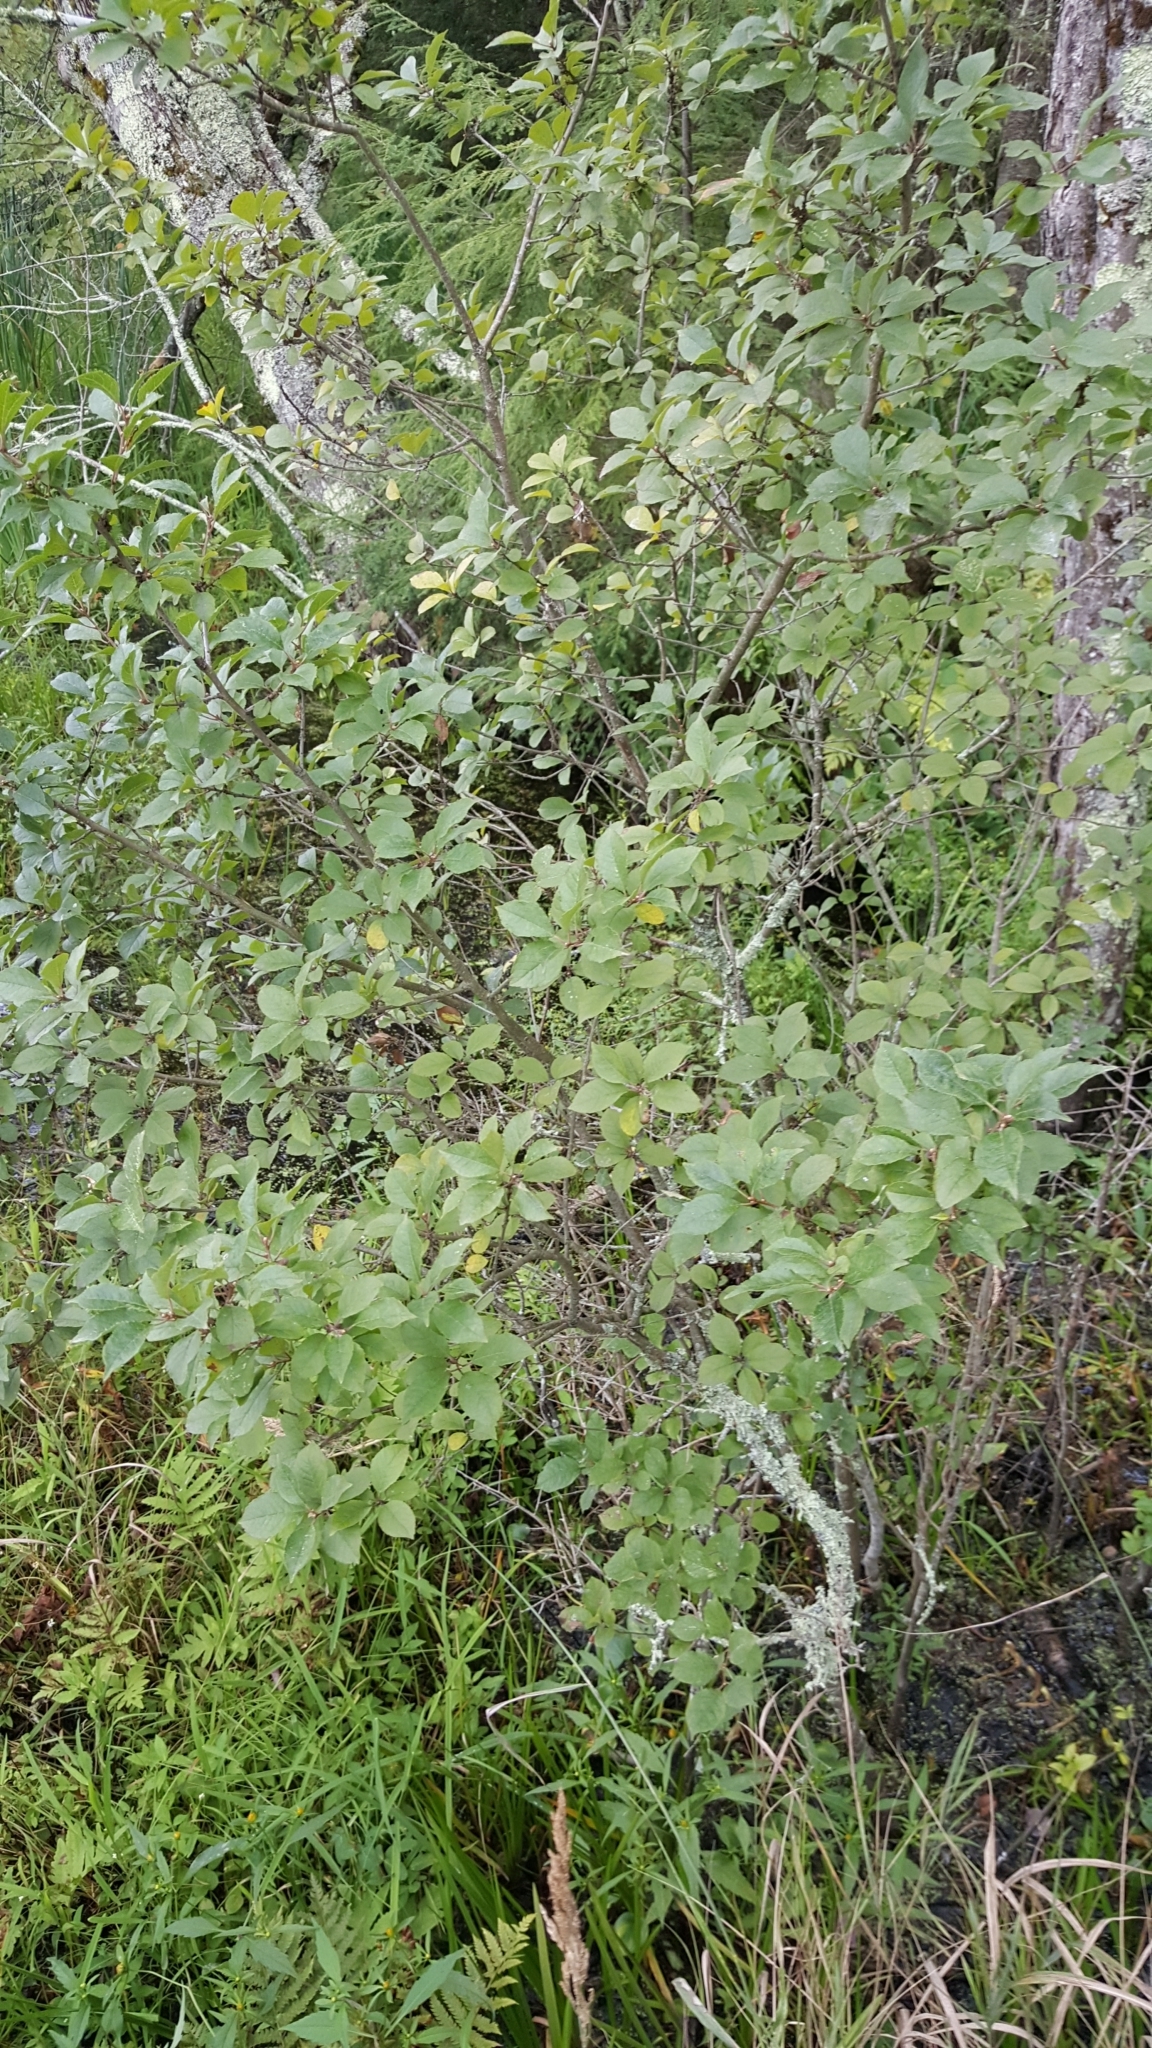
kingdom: Plantae
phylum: Tracheophyta
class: Magnoliopsida
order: Aquifoliales
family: Aquifoliaceae
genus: Ilex
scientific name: Ilex verticillata
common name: Virginia winterberry
